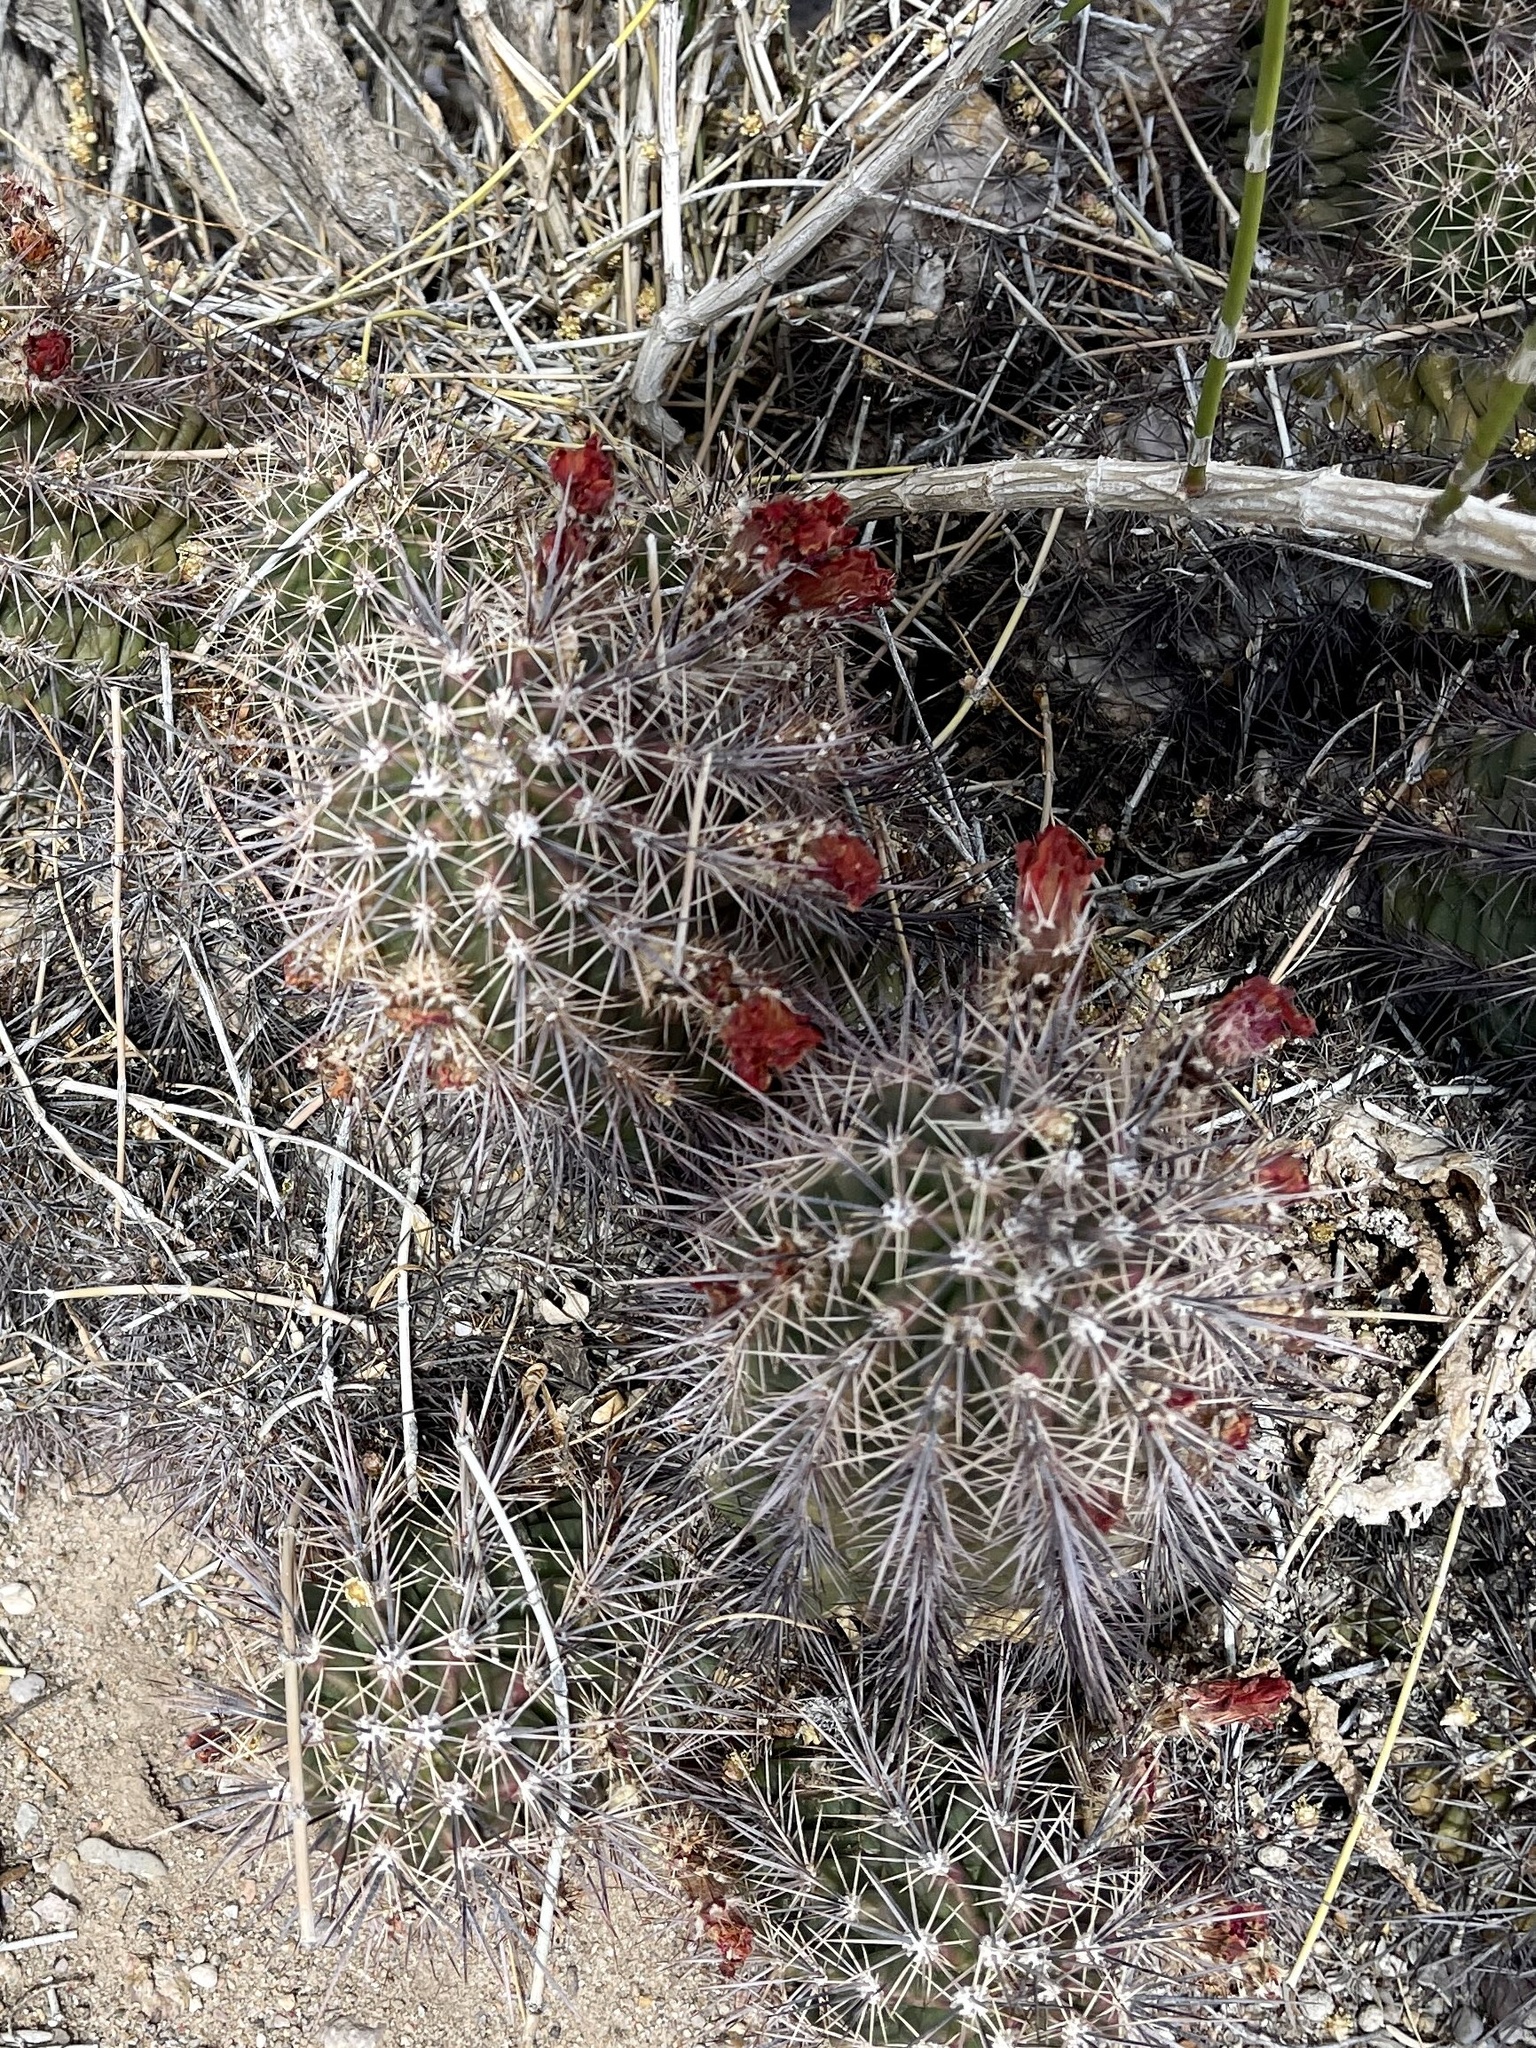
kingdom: Plantae
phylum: Tracheophyta
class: Magnoliopsida
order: Caryophyllales
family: Cactaceae
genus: Echinocereus
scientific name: Echinocereus coccineus
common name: Scarlet hedgehog cactus
